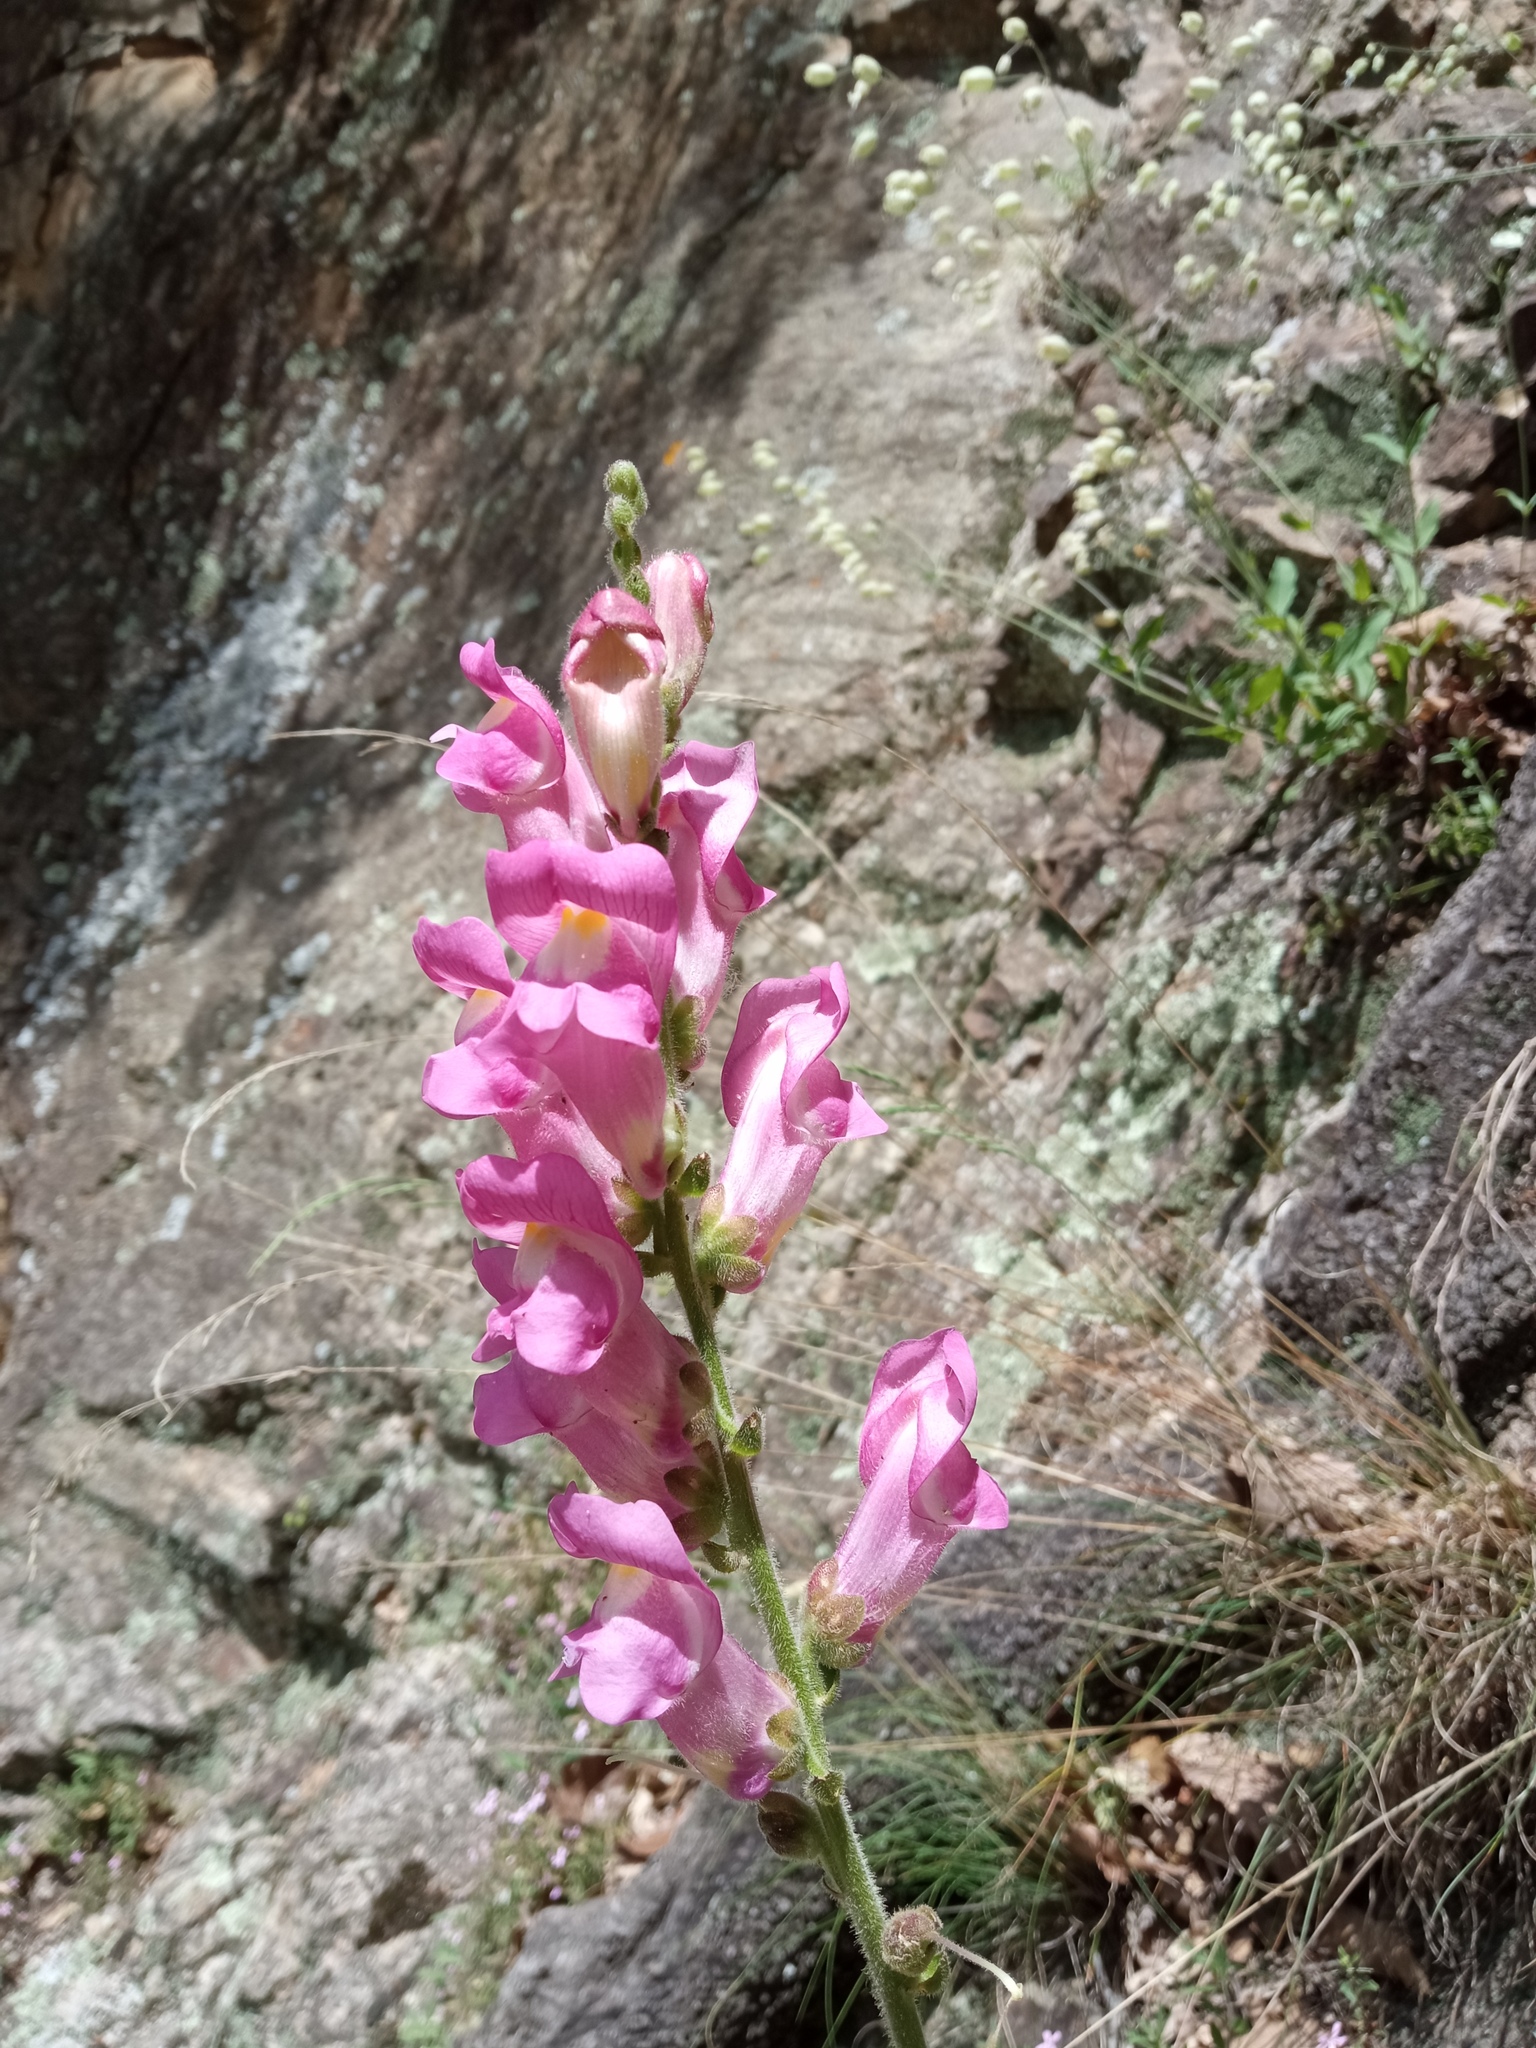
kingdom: Plantae
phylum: Tracheophyta
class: Magnoliopsida
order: Lamiales
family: Plantaginaceae
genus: Antirrhinum
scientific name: Antirrhinum majus
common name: Snapdragon
